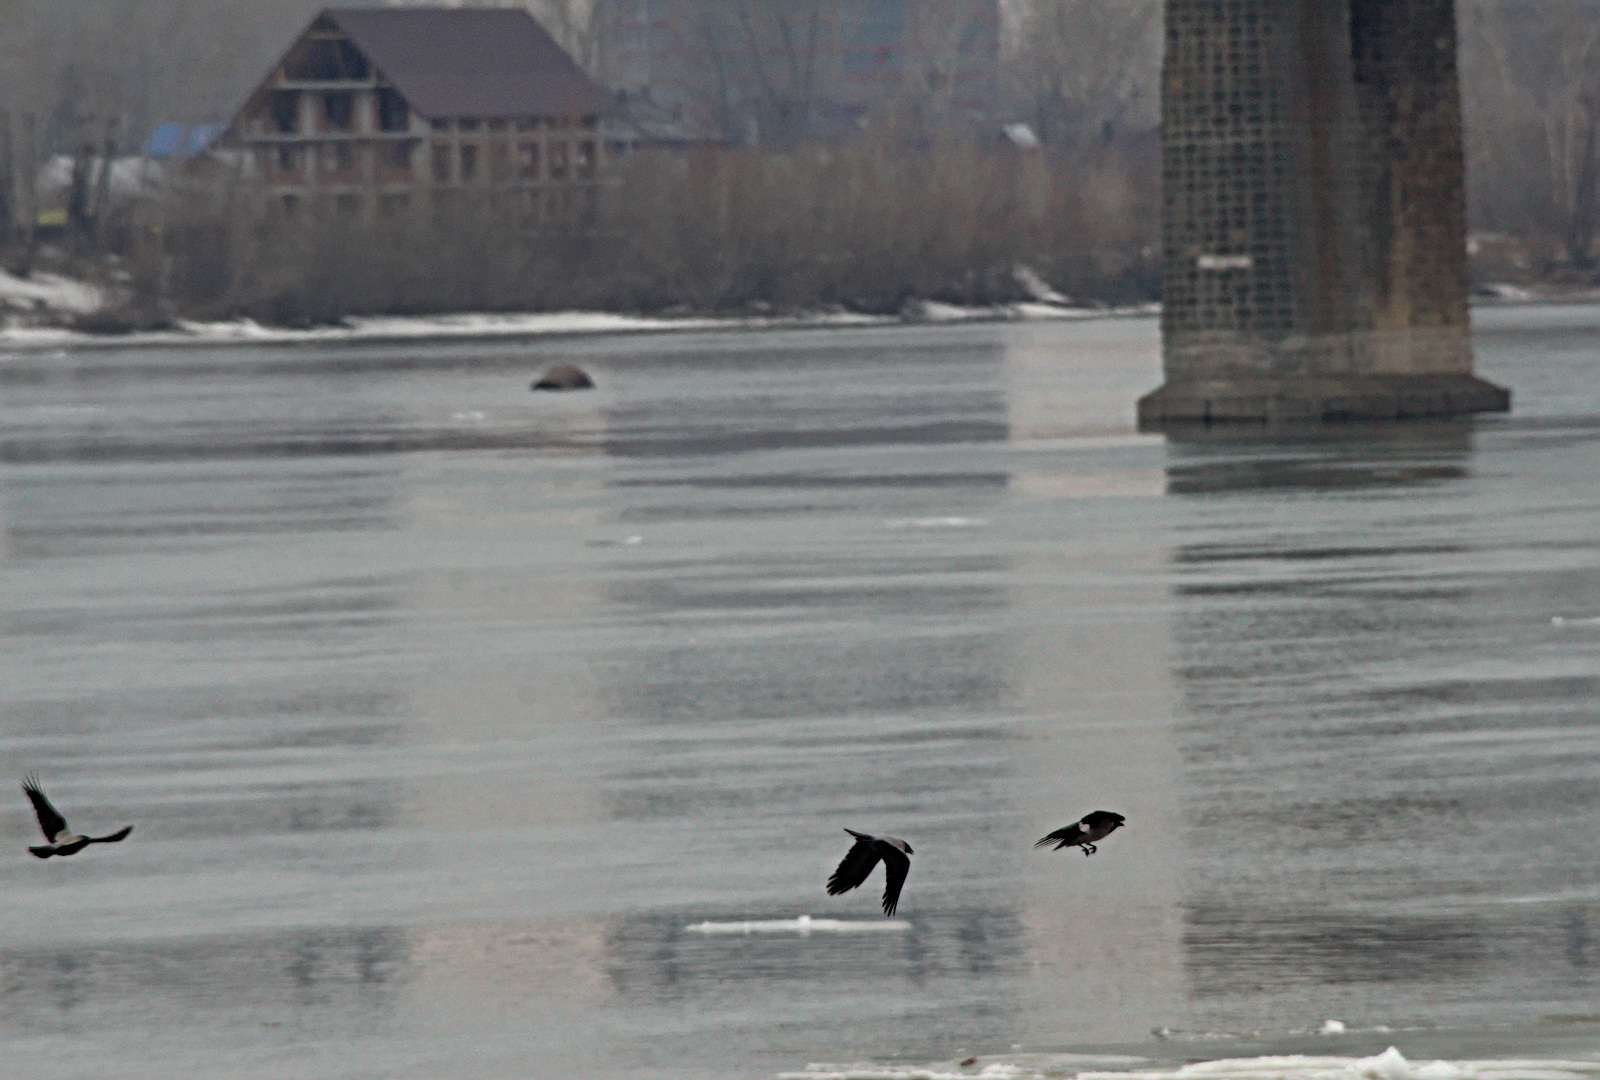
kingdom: Animalia
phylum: Chordata
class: Aves
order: Passeriformes
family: Corvidae
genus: Corvus
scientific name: Corvus cornix
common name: Hooded crow
